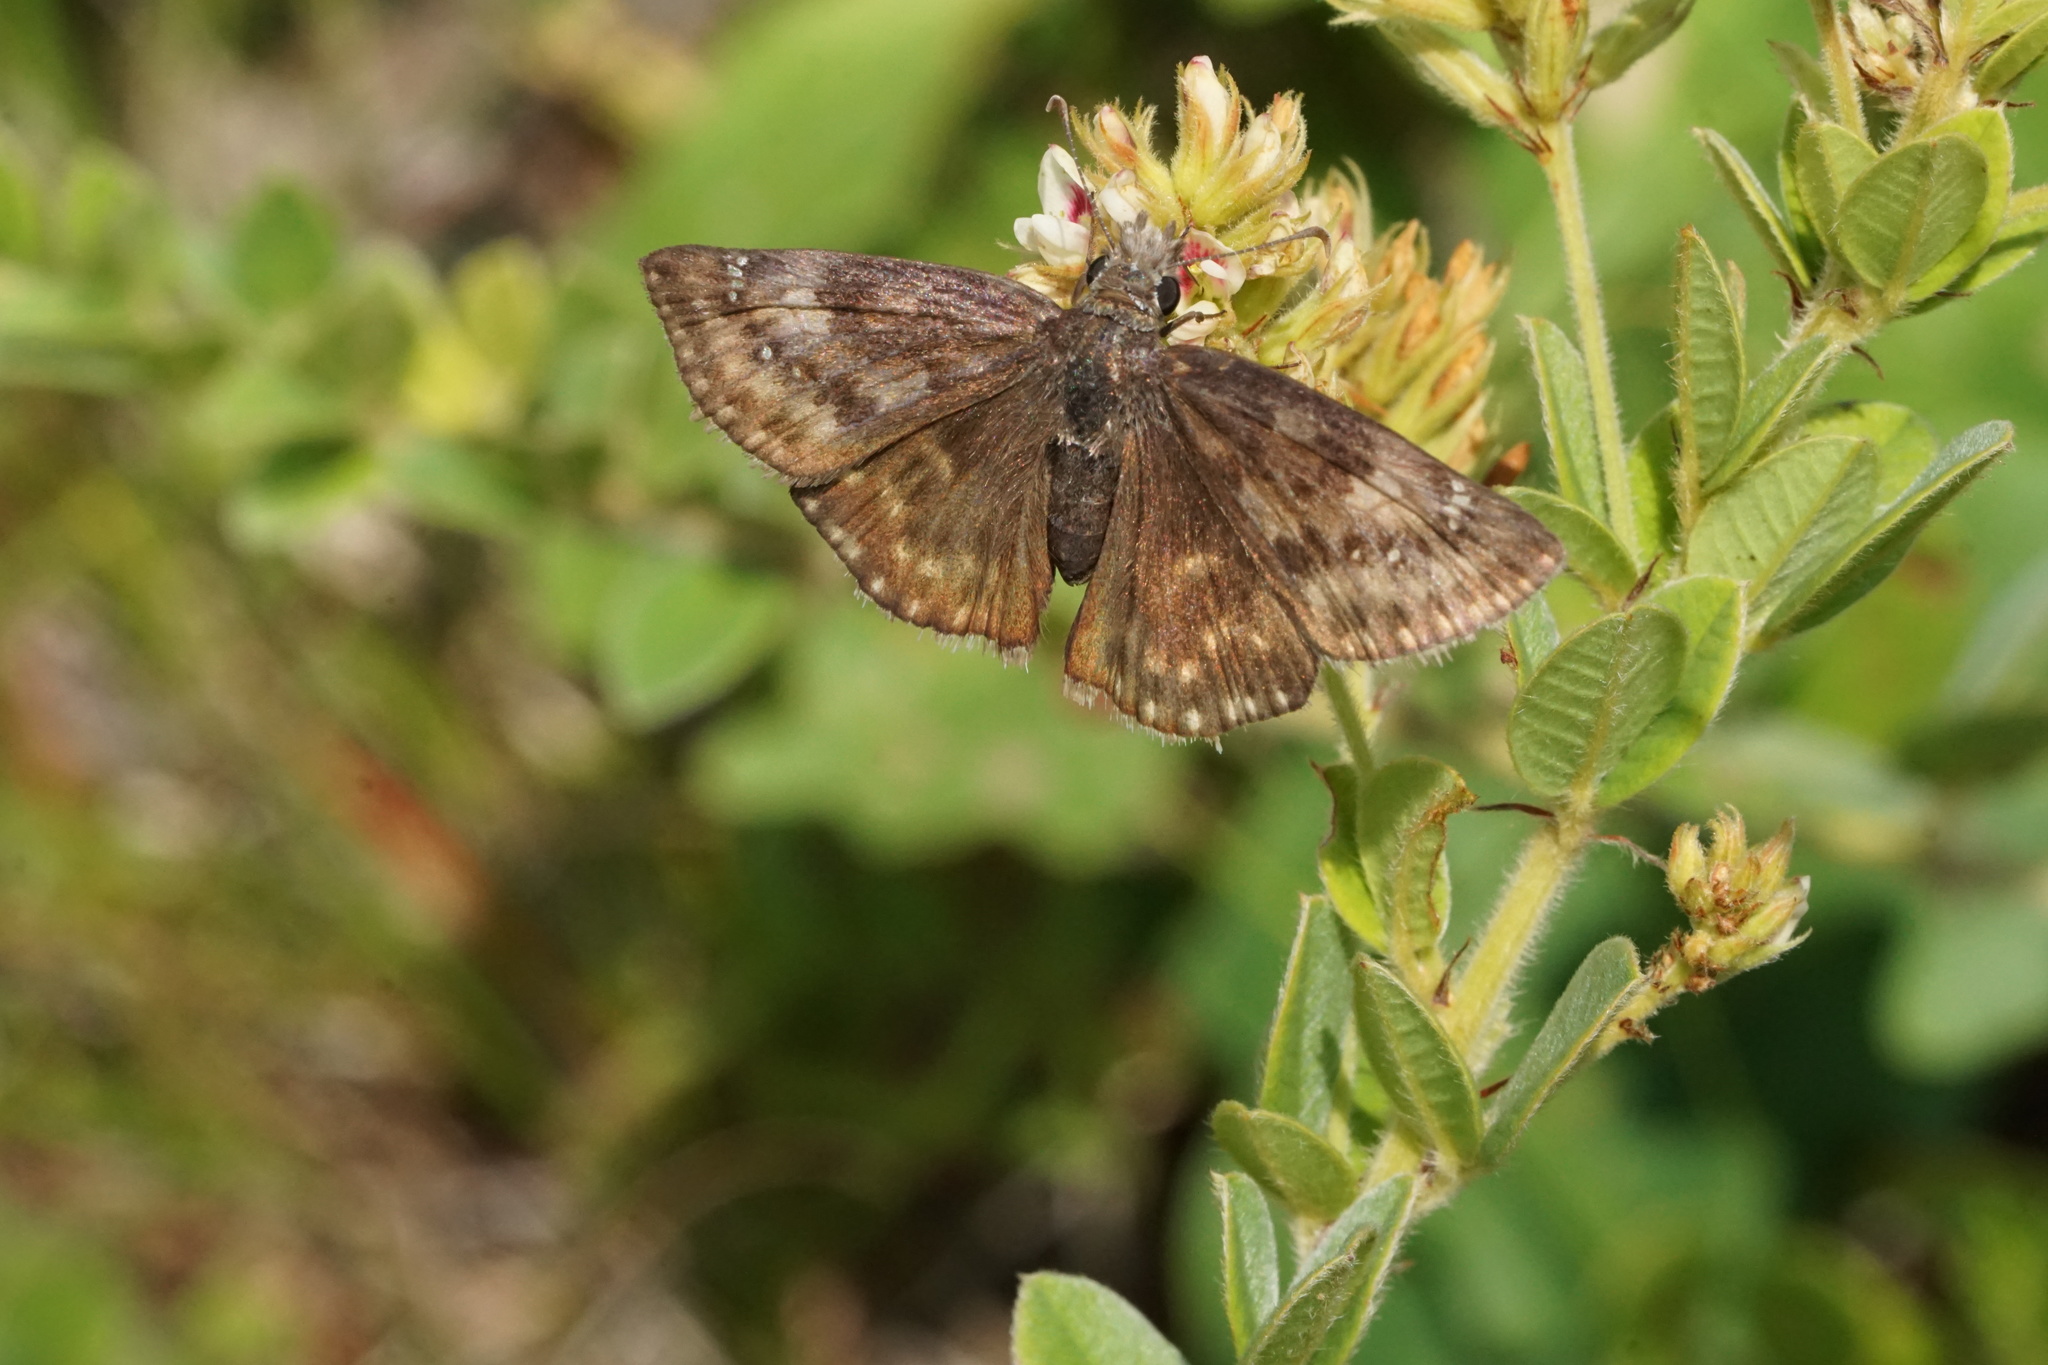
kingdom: Animalia
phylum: Arthropoda
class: Insecta
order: Lepidoptera
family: Hesperiidae
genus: Erynnis
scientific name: Erynnis baptisiae
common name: Wild indigo duskywing
